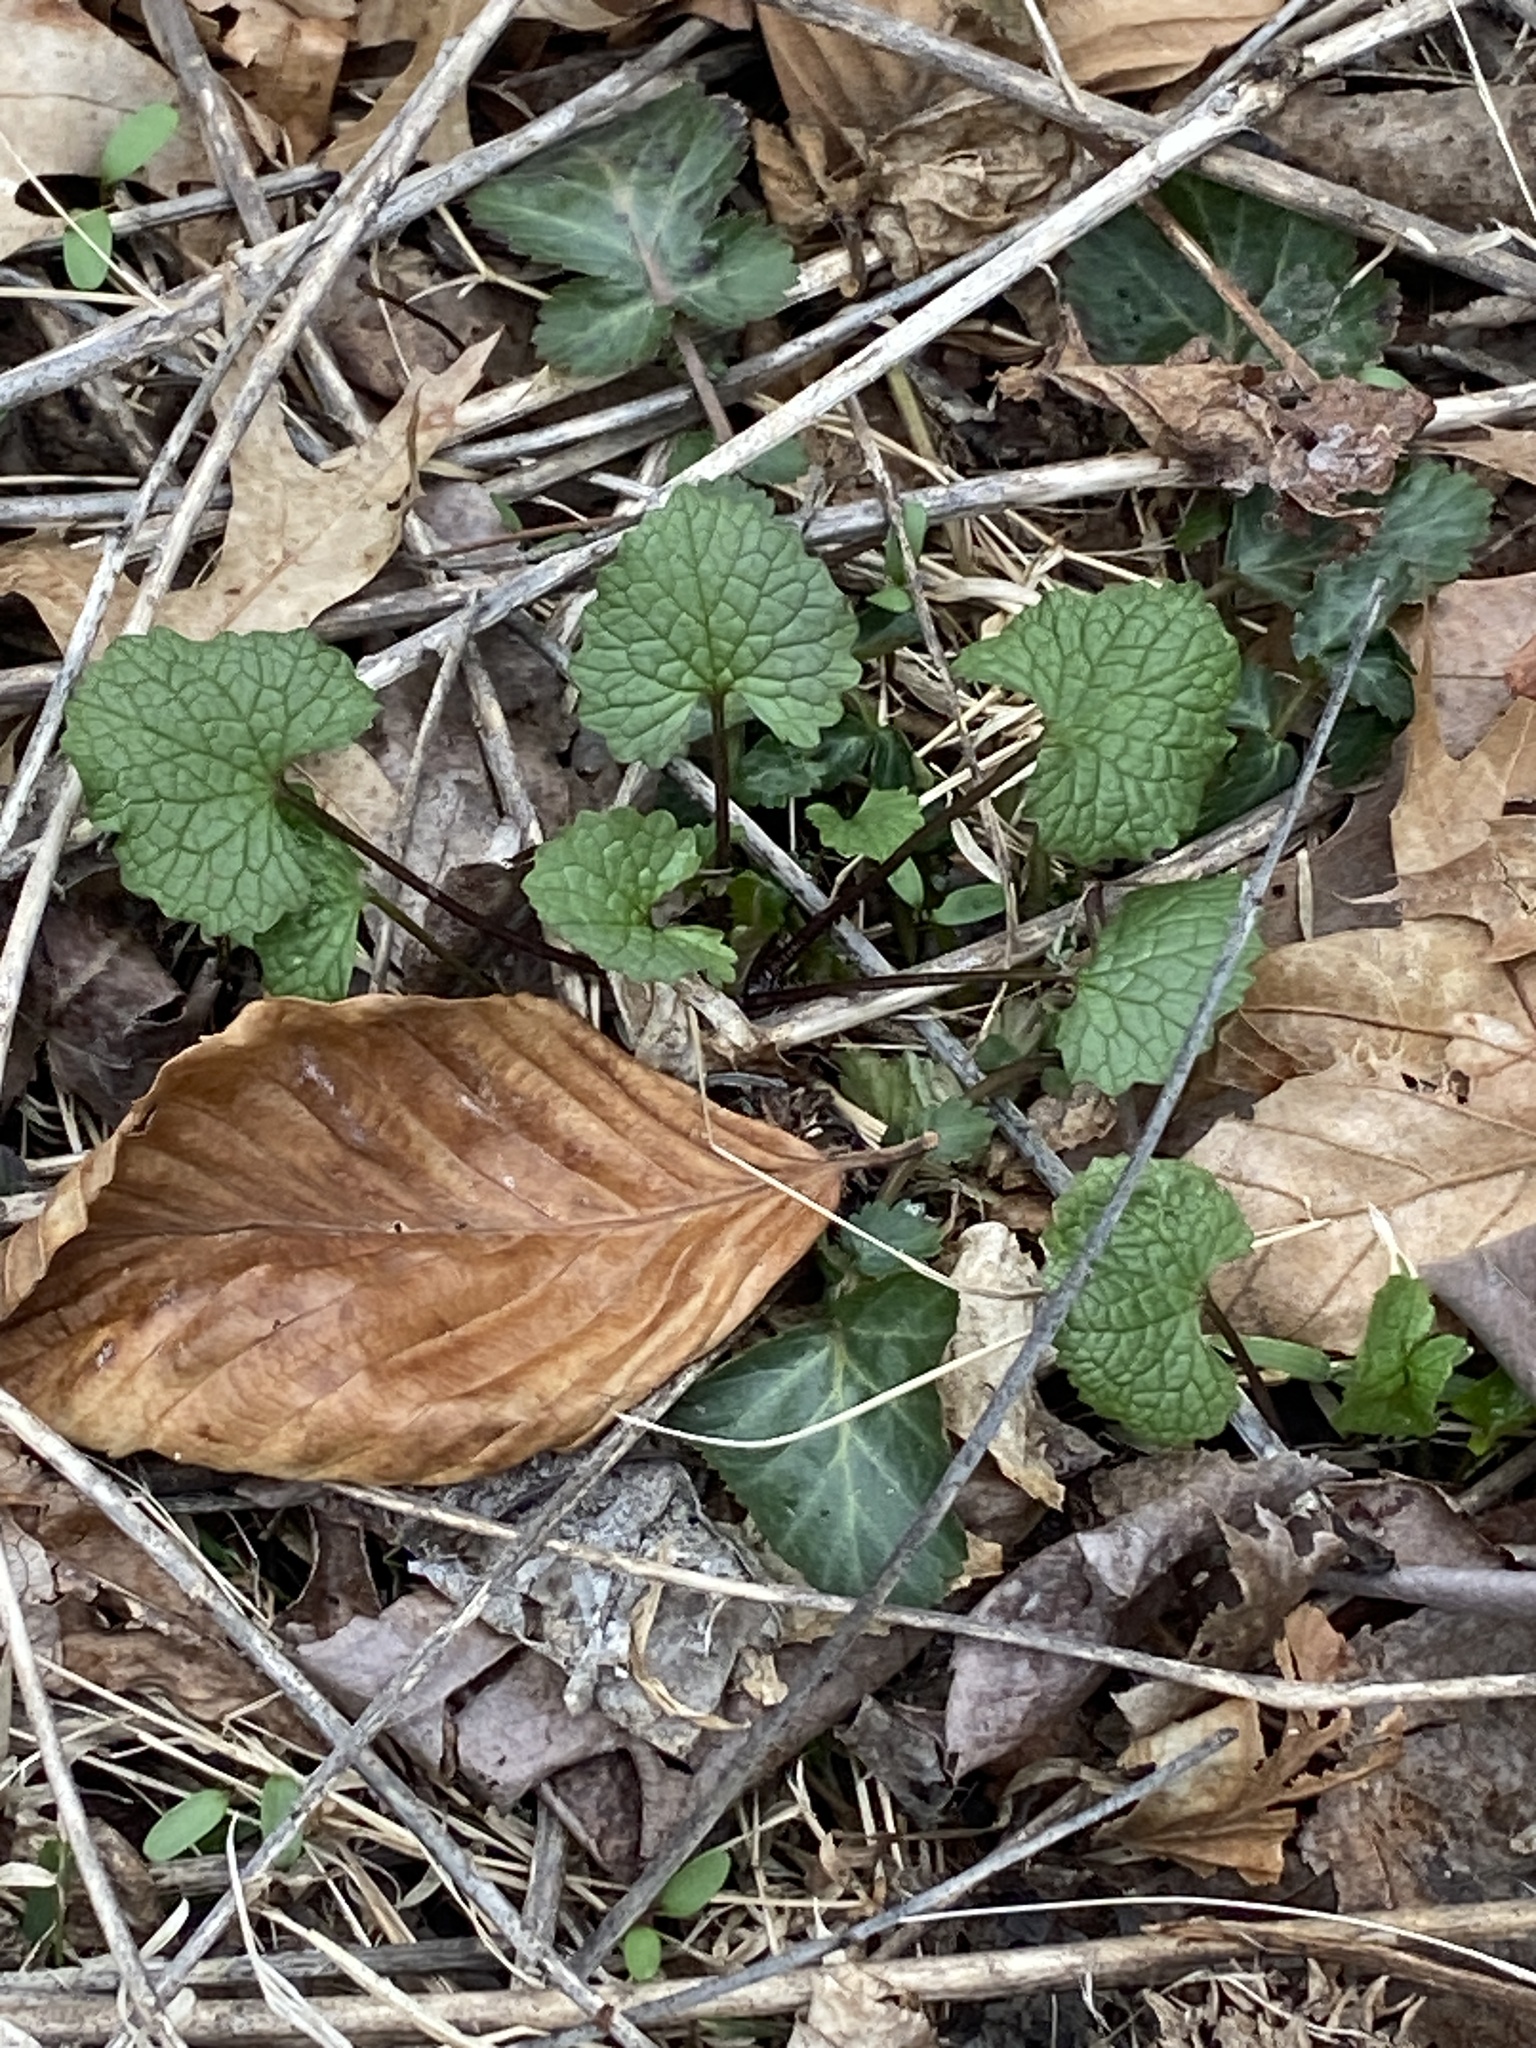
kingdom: Plantae
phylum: Tracheophyta
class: Magnoliopsida
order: Brassicales
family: Brassicaceae
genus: Alliaria
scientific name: Alliaria petiolata
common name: Garlic mustard
